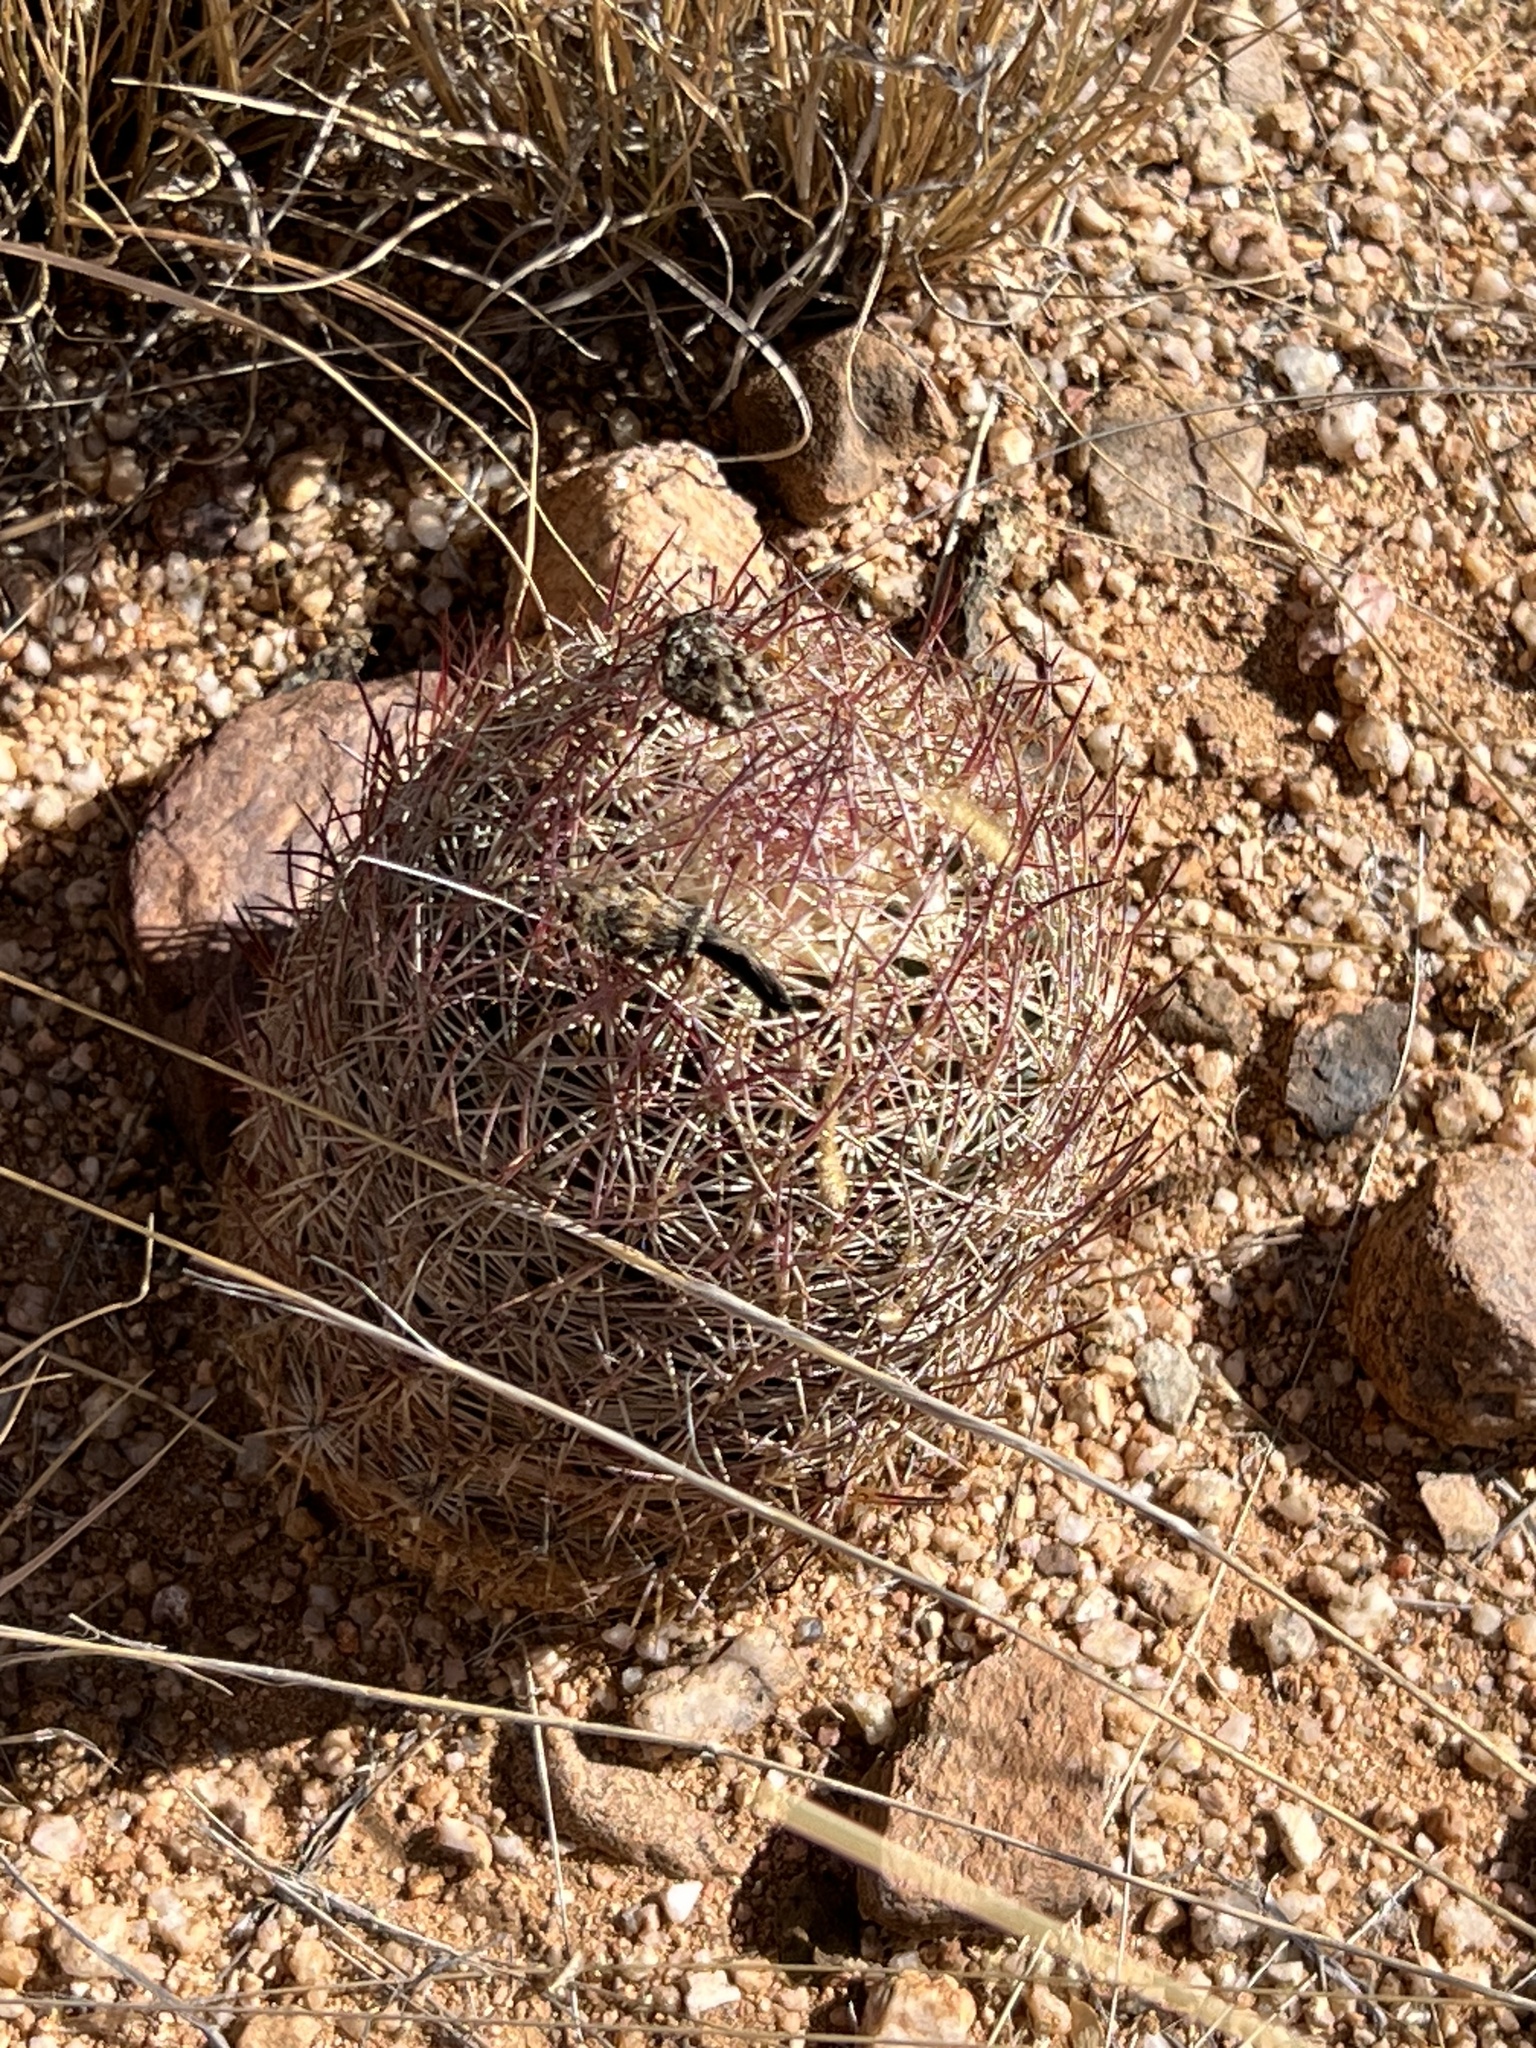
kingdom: Plantae
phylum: Tracheophyta
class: Magnoliopsida
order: Caryophyllales
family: Cactaceae
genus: Sclerocactus
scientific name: Sclerocactus johnsonii
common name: Eight-spine fishhook cactus
